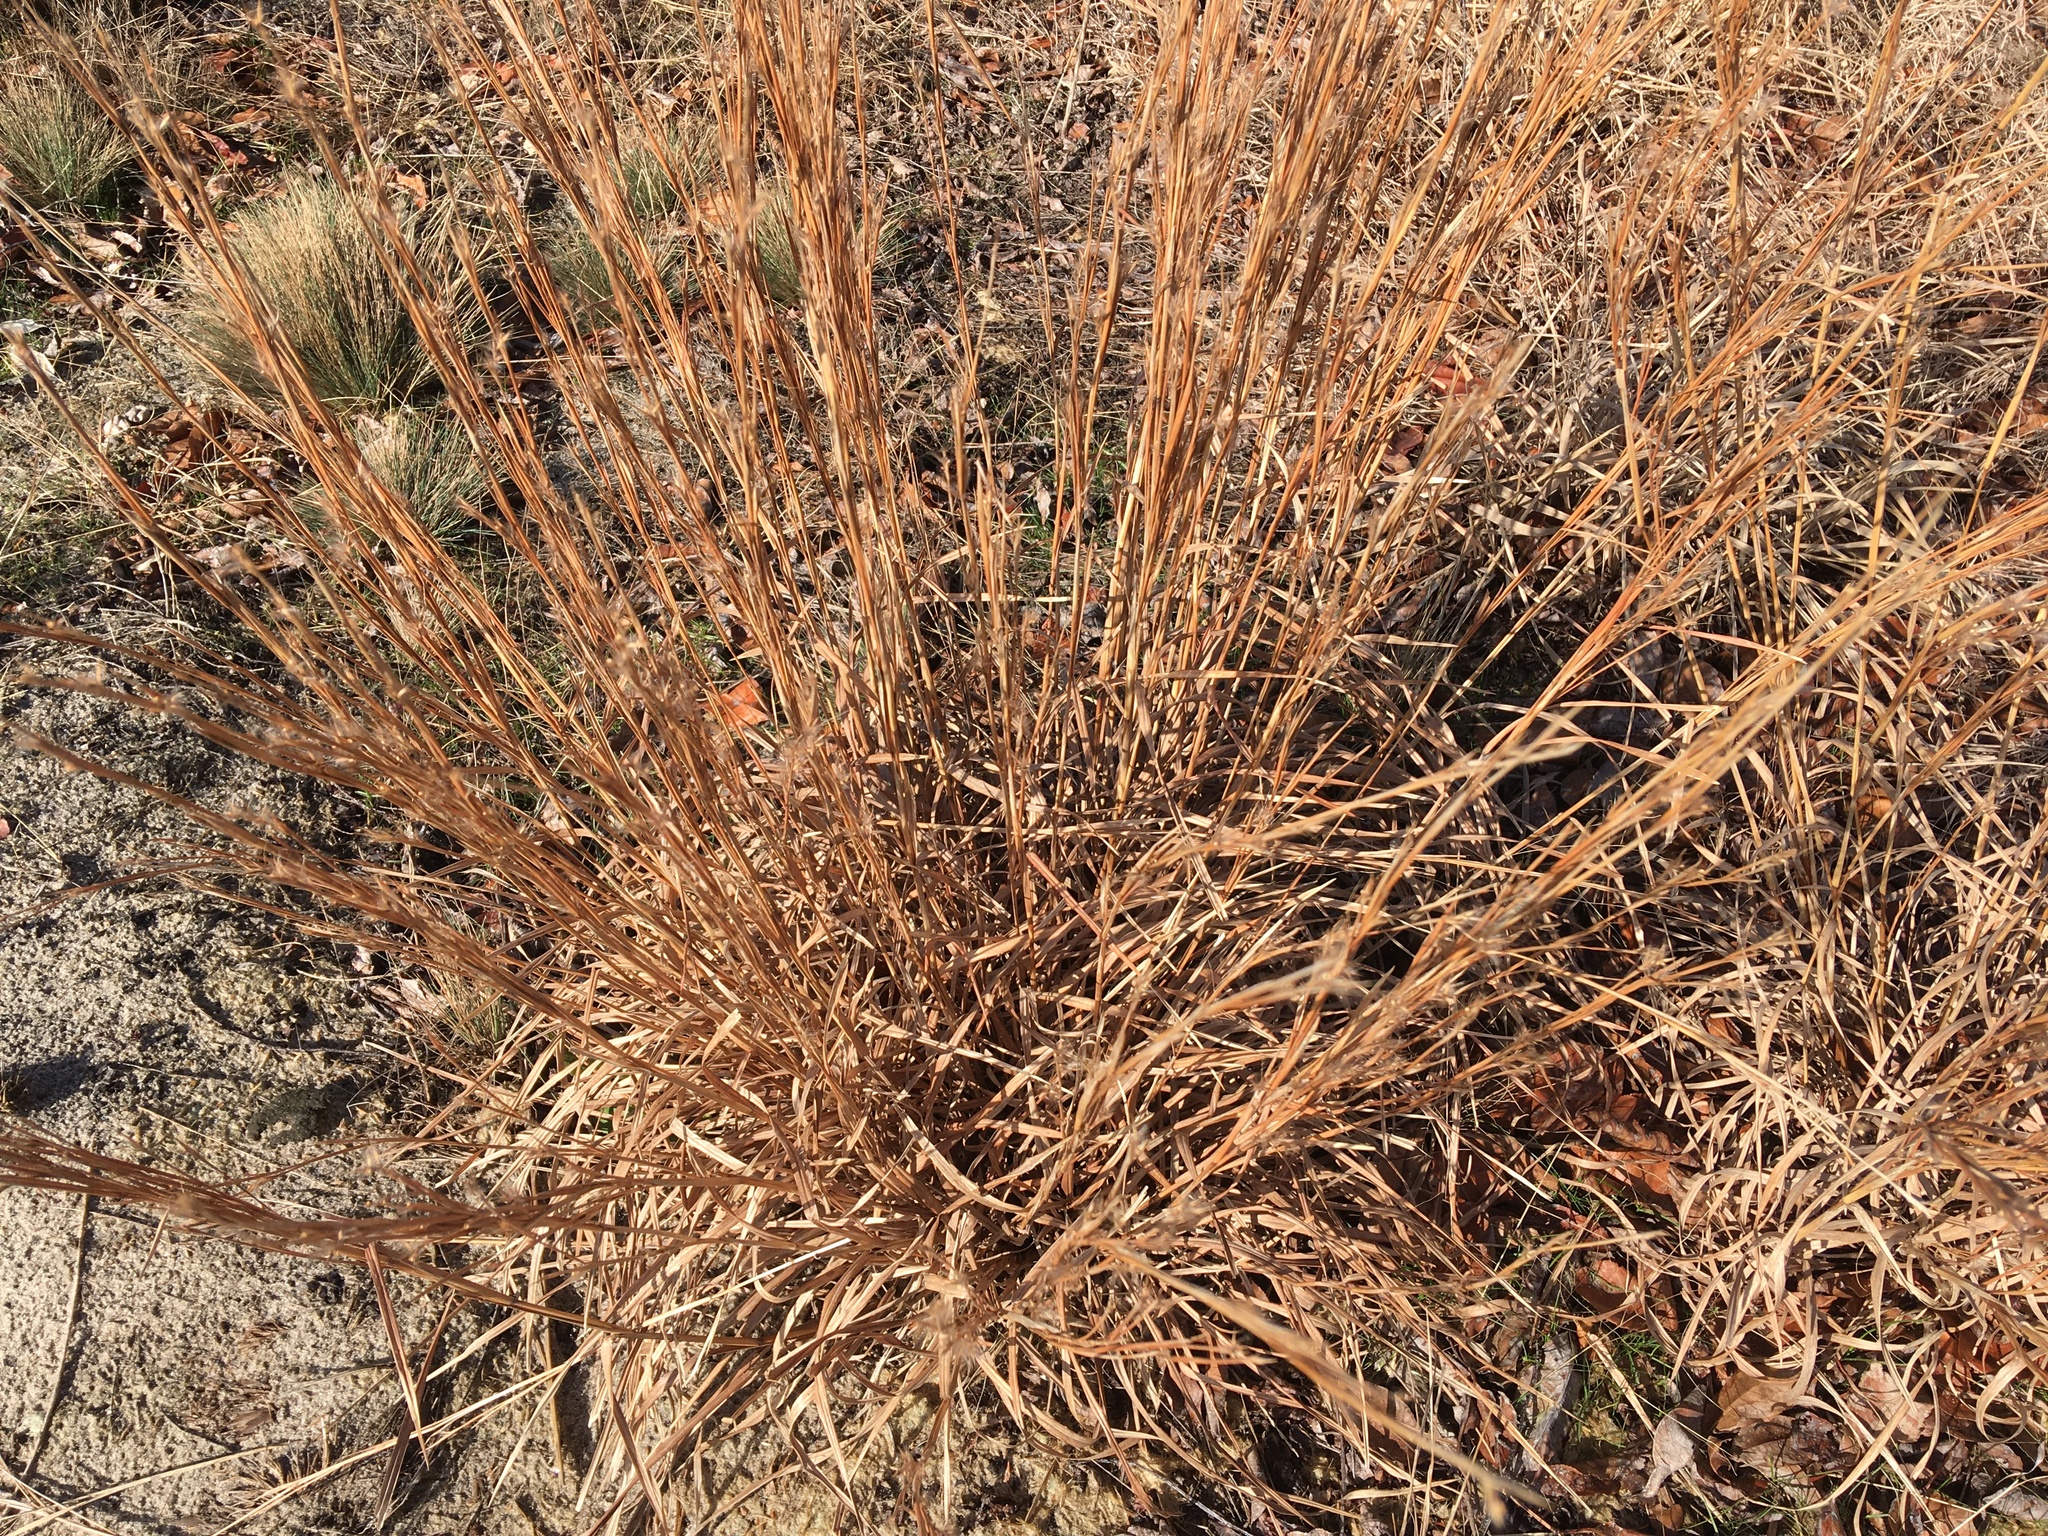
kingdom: Plantae
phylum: Tracheophyta
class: Liliopsida
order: Poales
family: Poaceae
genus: Schizachyrium
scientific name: Schizachyrium scoparium
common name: Little bluestem
